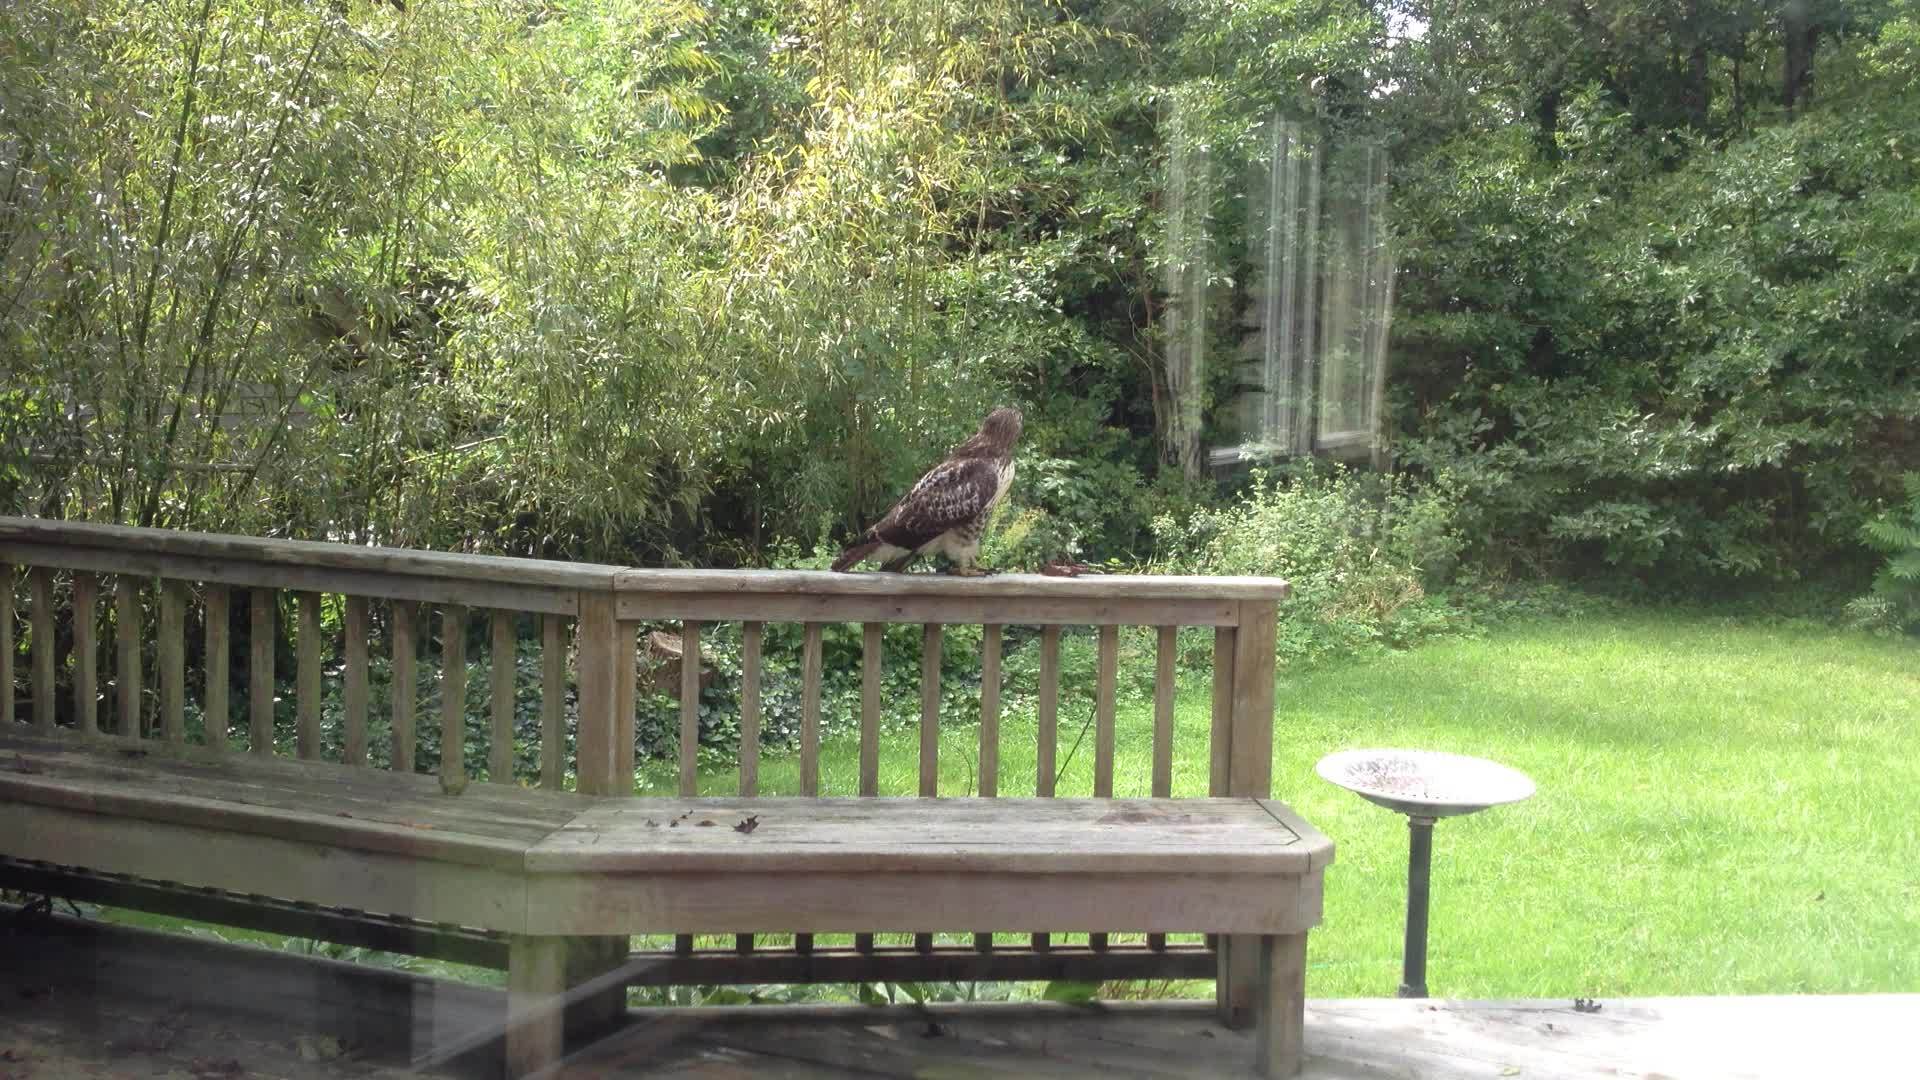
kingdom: Animalia
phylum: Chordata
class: Aves
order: Accipitriformes
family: Accipitridae
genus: Buteo
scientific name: Buteo jamaicensis
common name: Red-tailed hawk
